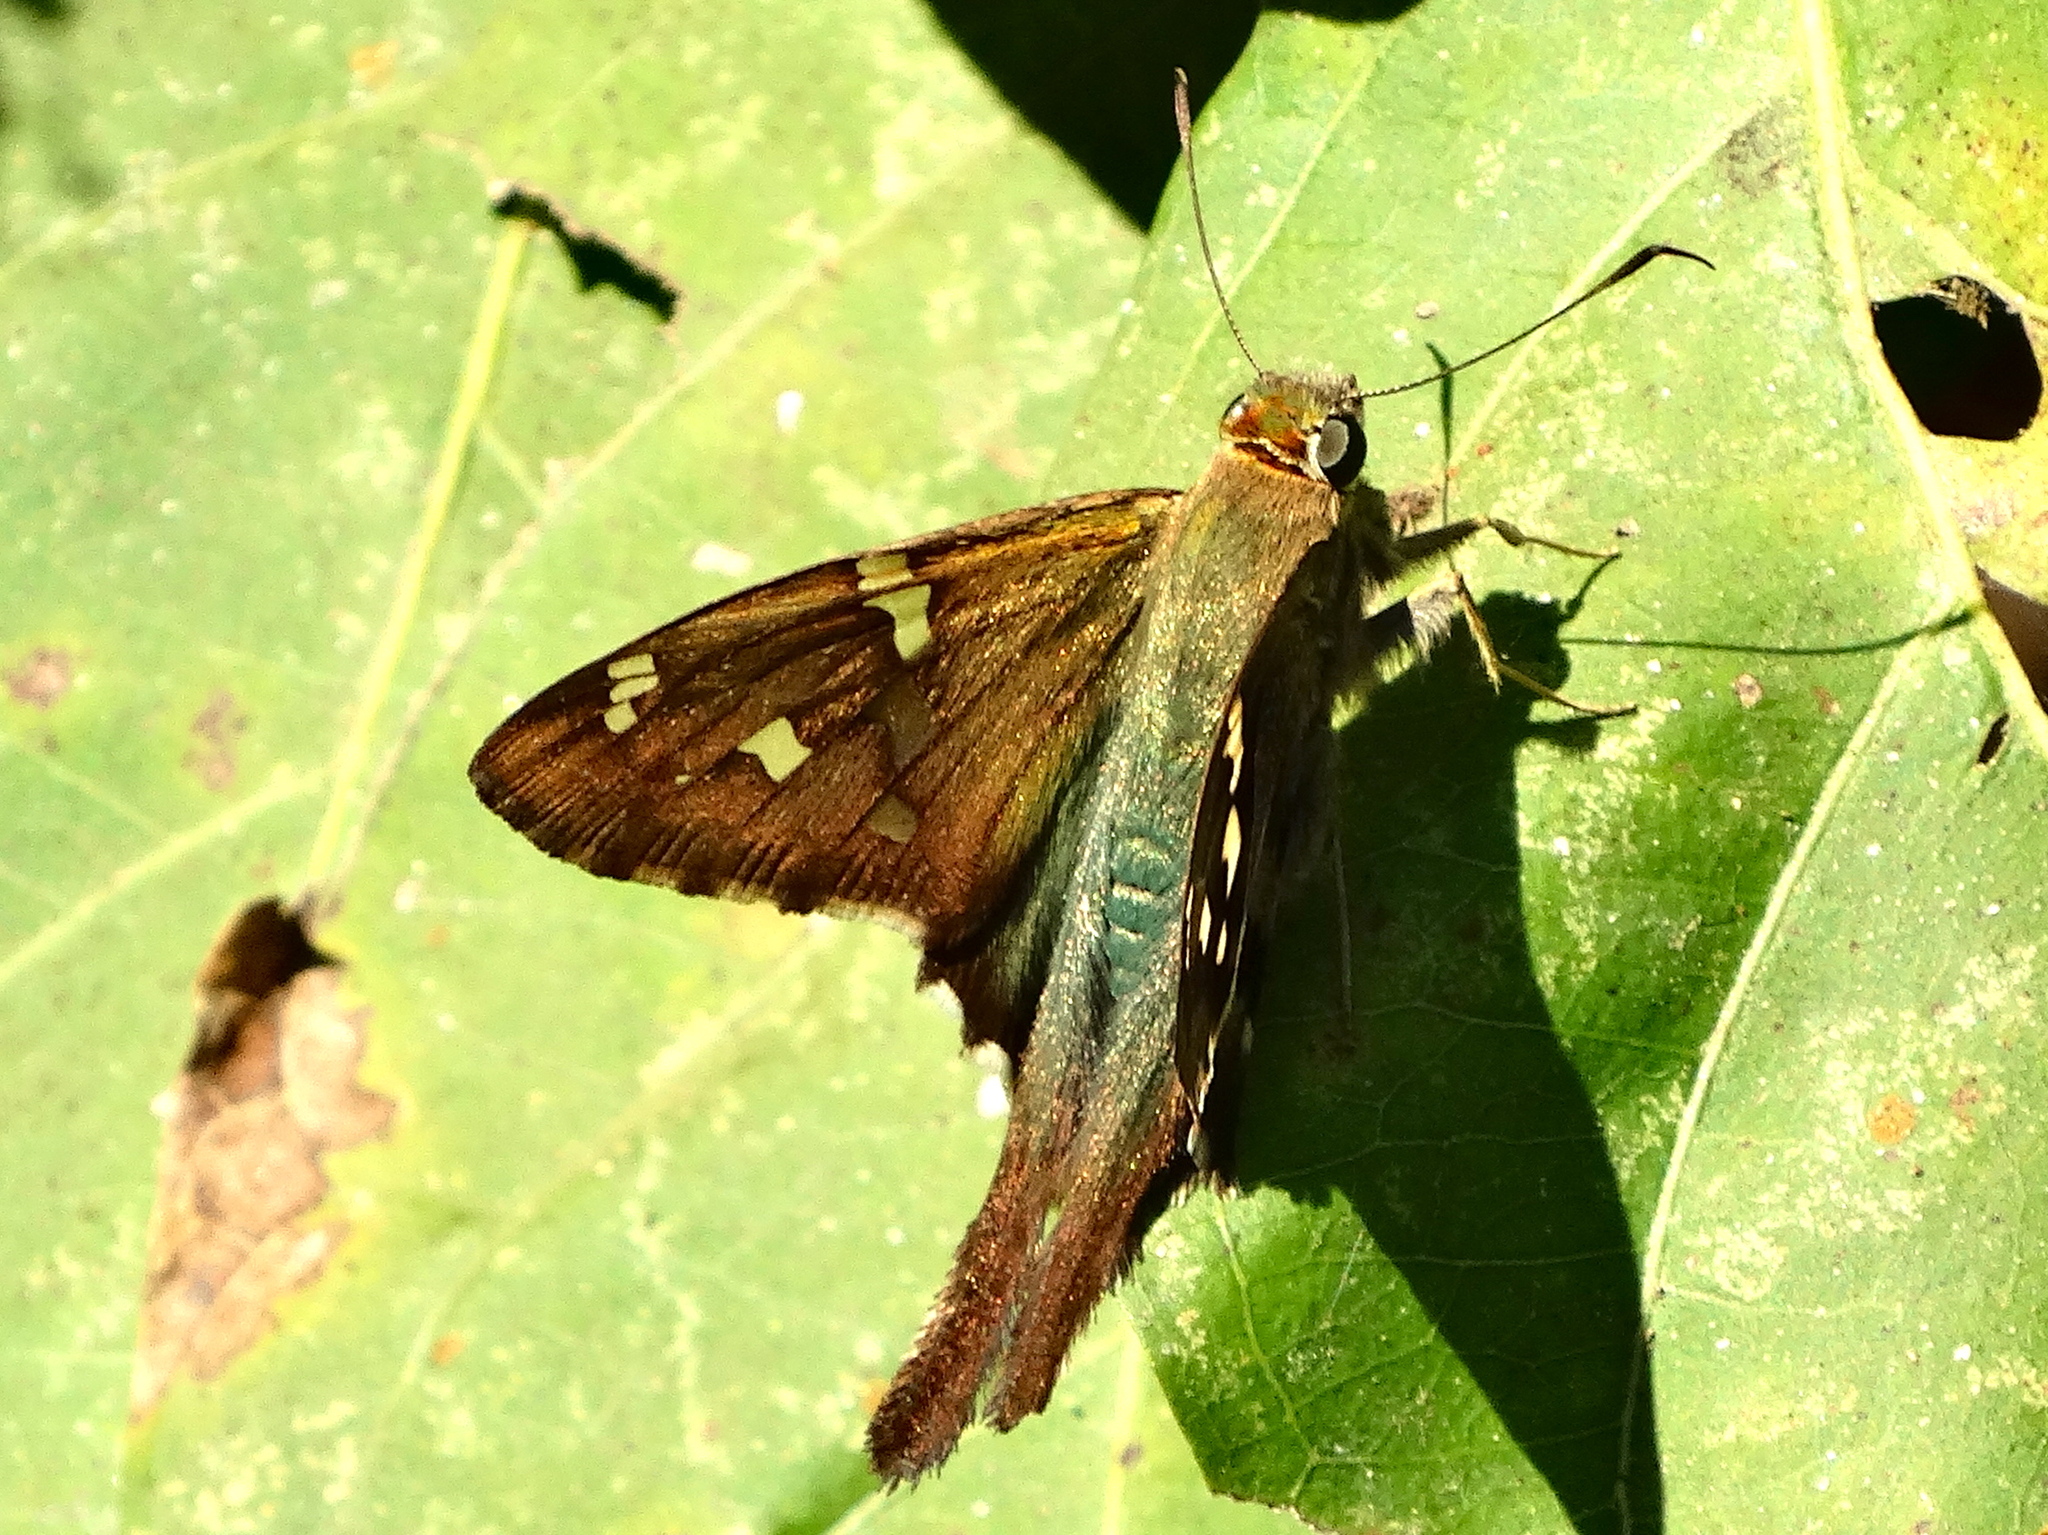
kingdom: Animalia
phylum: Arthropoda
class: Insecta
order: Lepidoptera
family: Hesperiidae
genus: Urbanus
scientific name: Urbanus esmeraldus
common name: Esmeralda longtail
